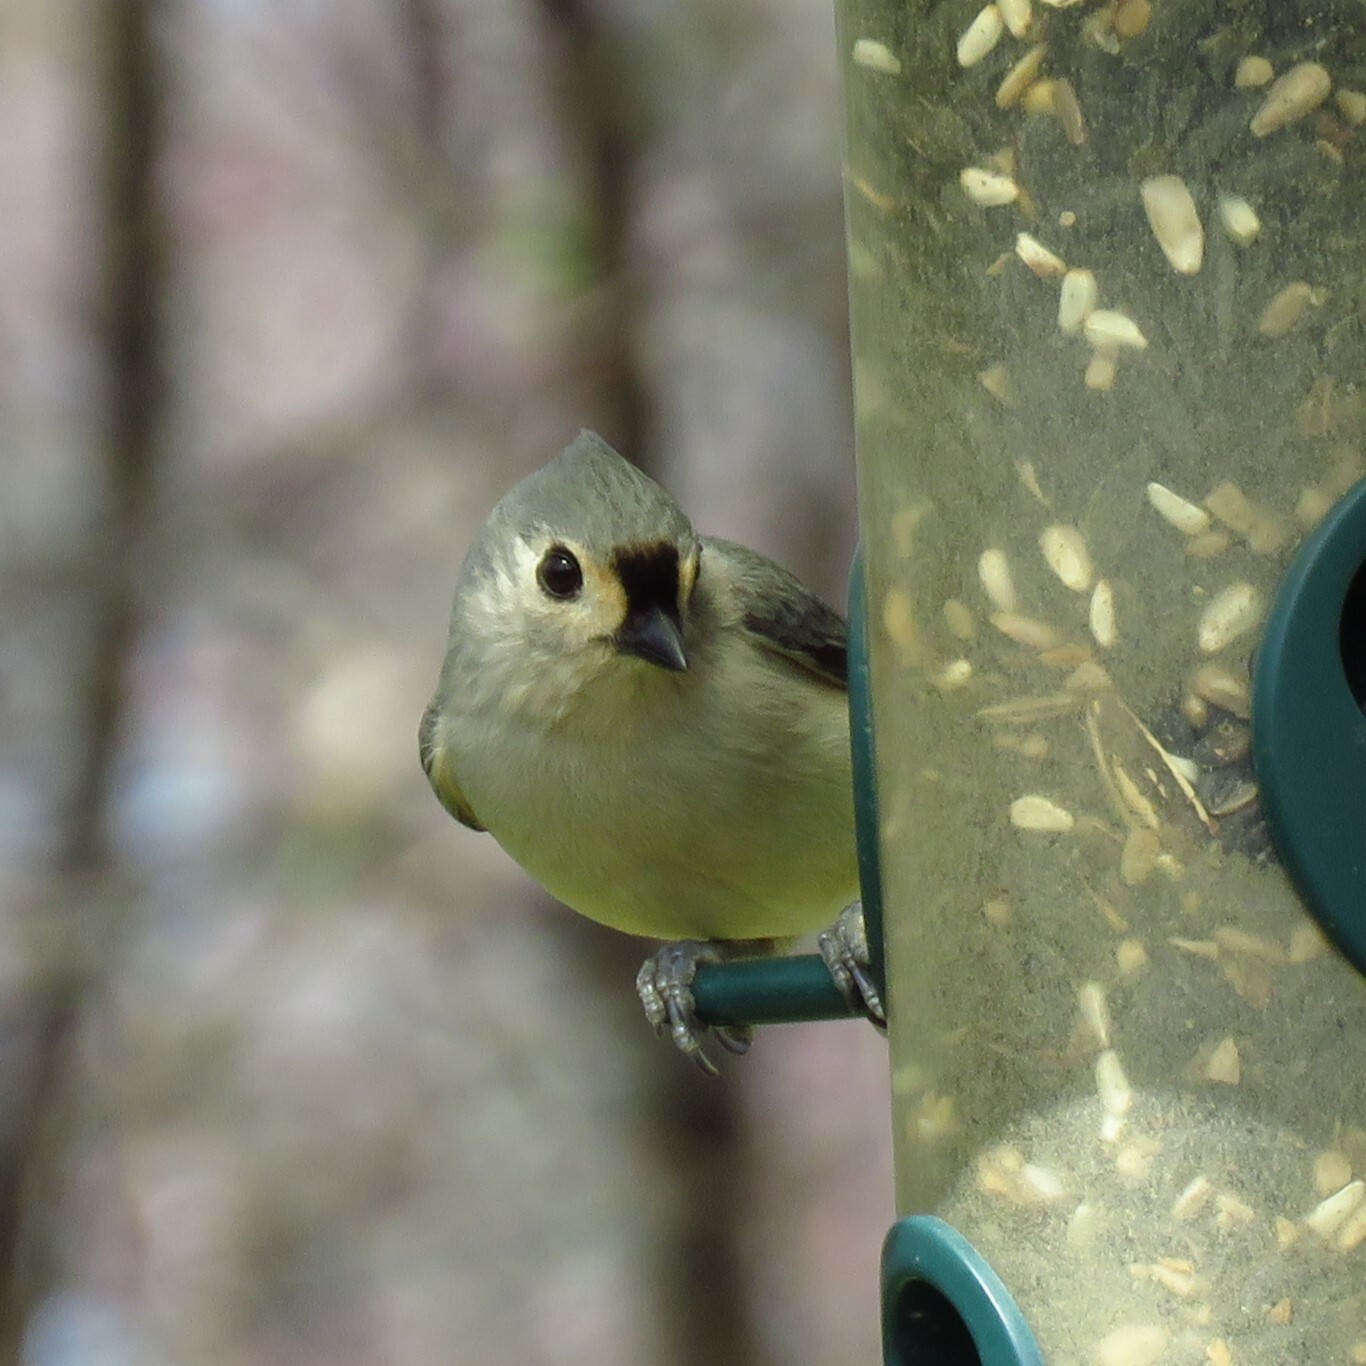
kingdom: Animalia
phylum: Chordata
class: Aves
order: Passeriformes
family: Paridae
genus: Baeolophus
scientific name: Baeolophus bicolor
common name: Tufted titmouse
